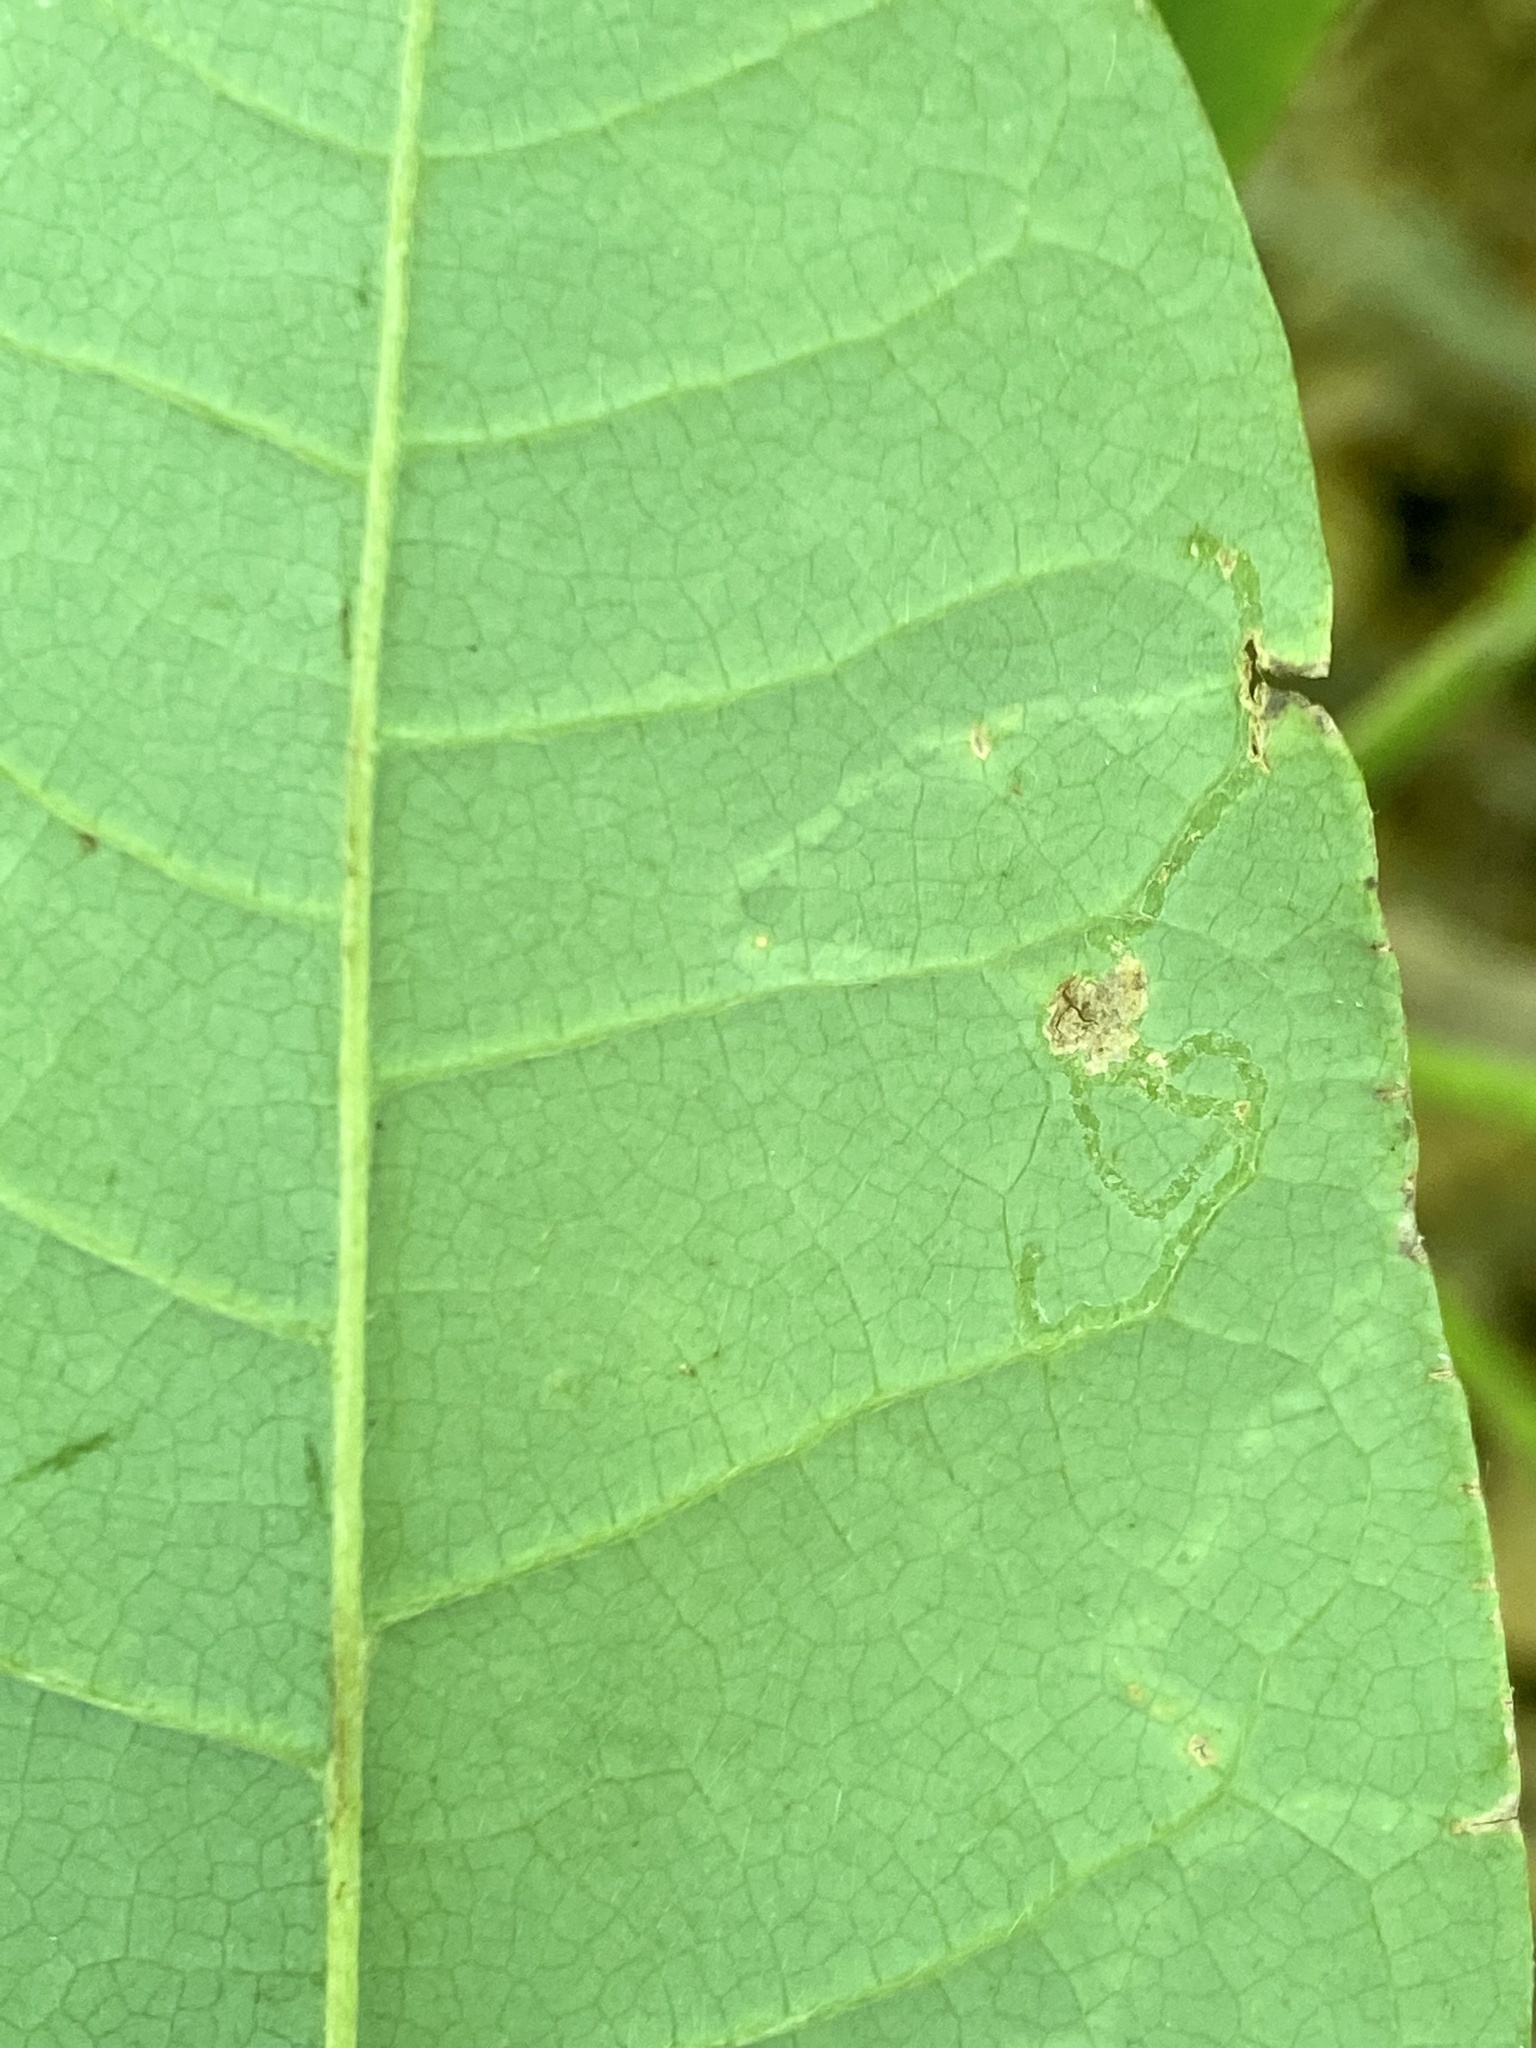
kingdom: Animalia
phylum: Arthropoda
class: Insecta
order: Lepidoptera
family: Gracillariidae
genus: Phyllocnistis
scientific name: Phyllocnistis liriodendronella
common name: Tulip tree leaf miner
